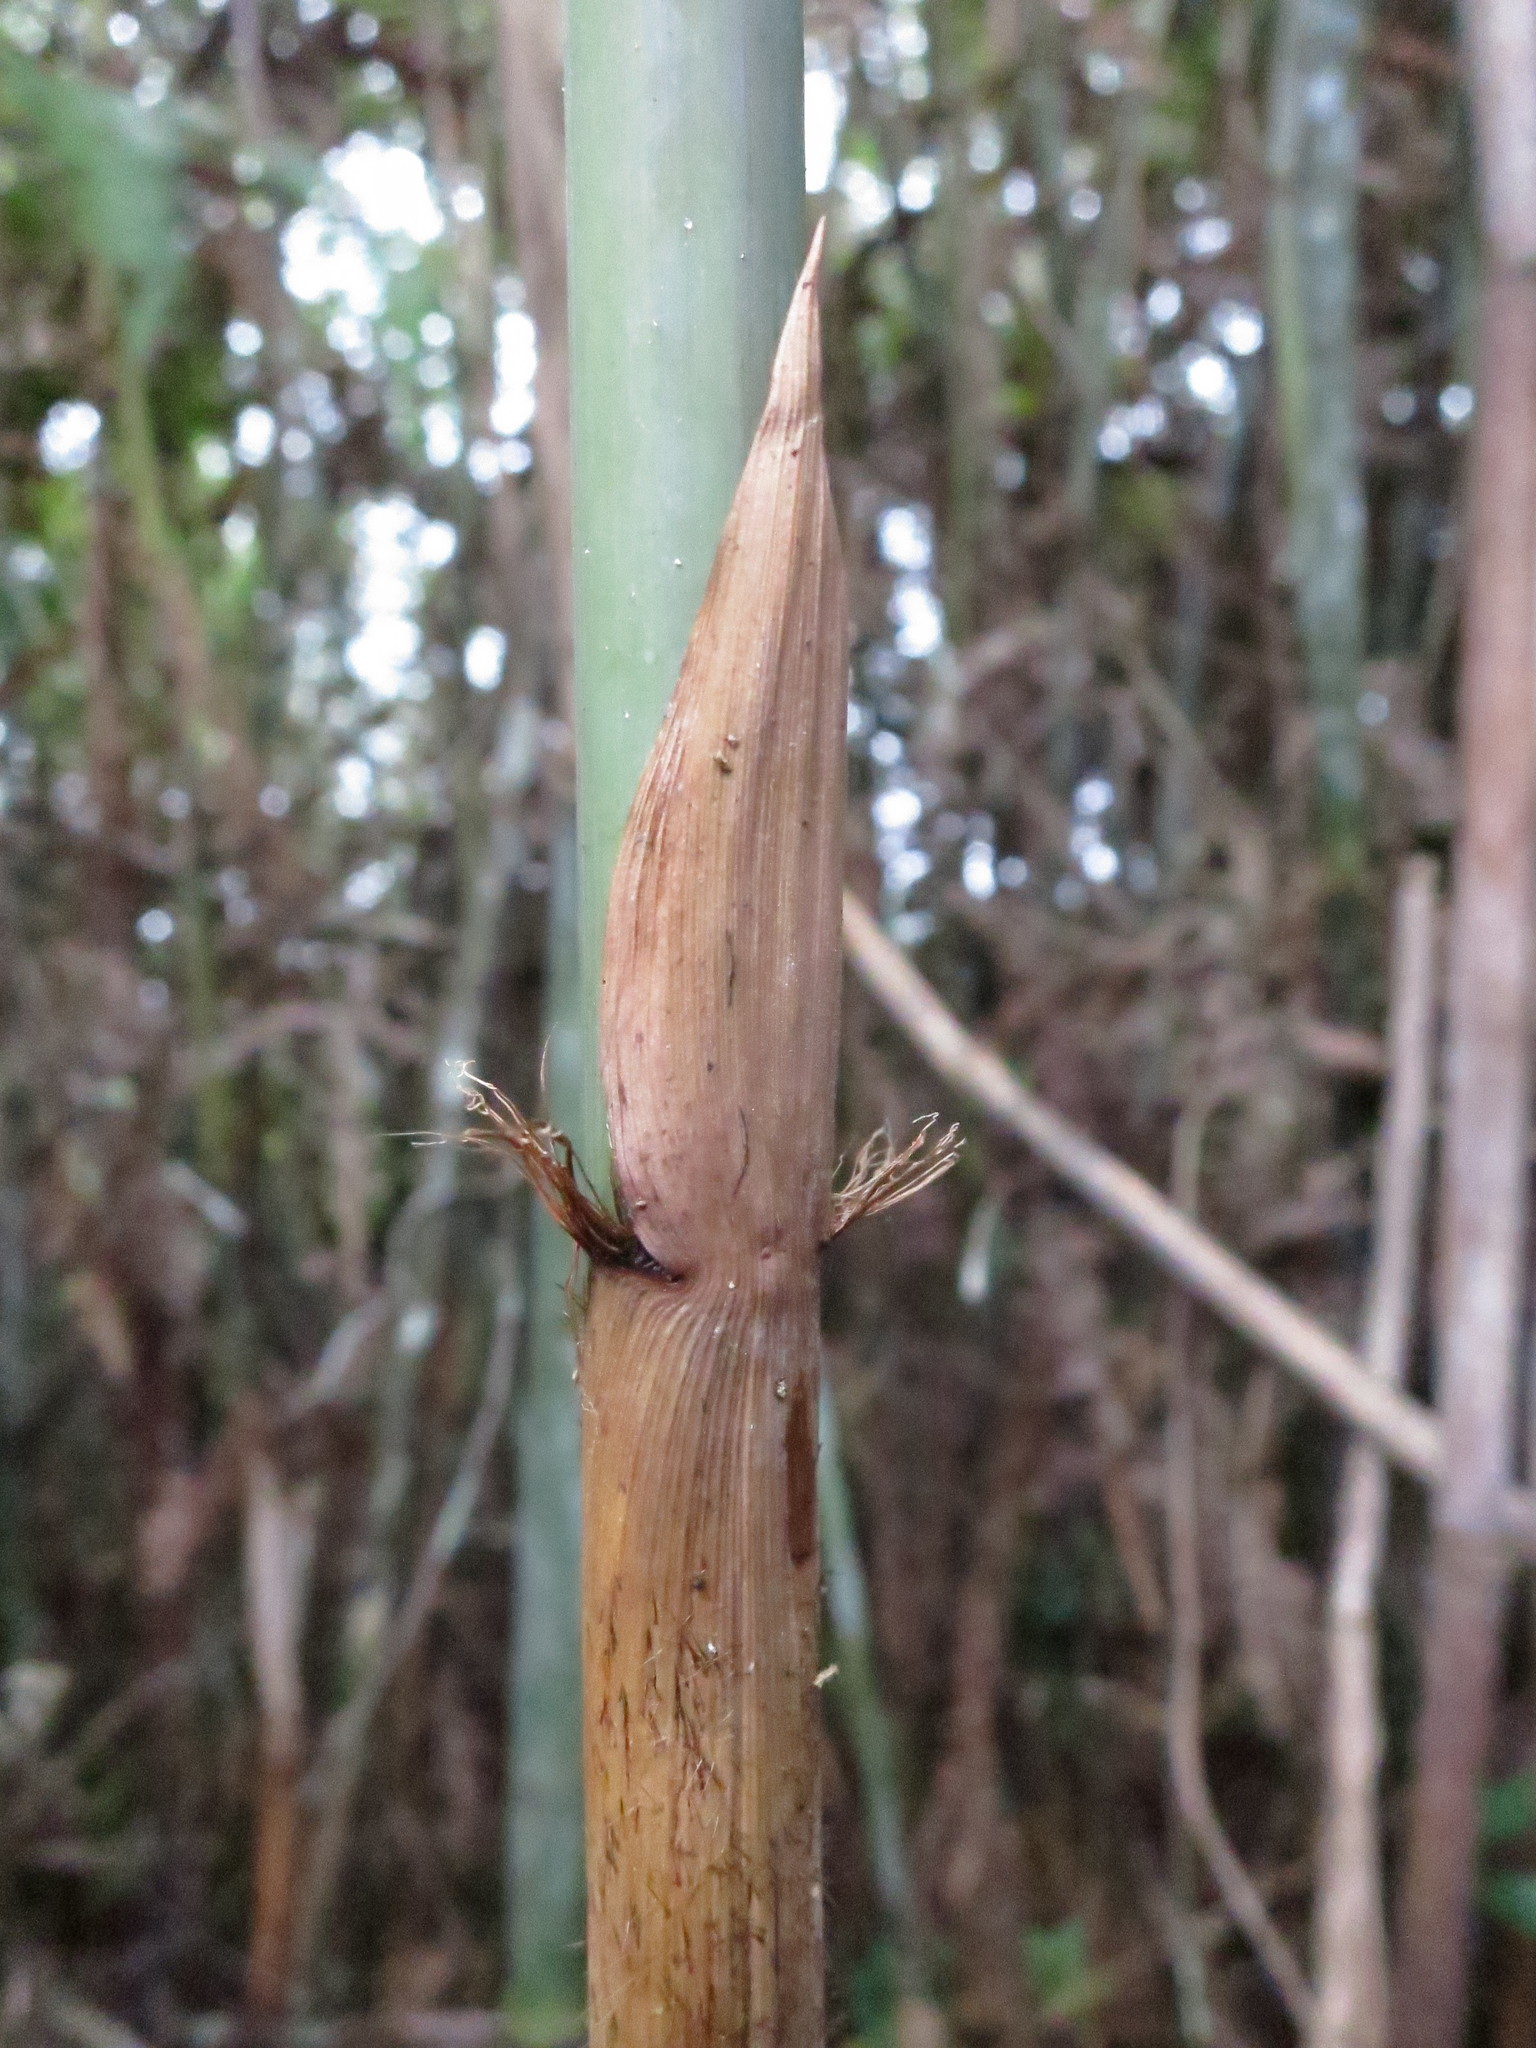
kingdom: Plantae
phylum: Tracheophyta
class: Liliopsida
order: Poales
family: Poaceae
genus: Oldeania
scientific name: Oldeania humbertii
